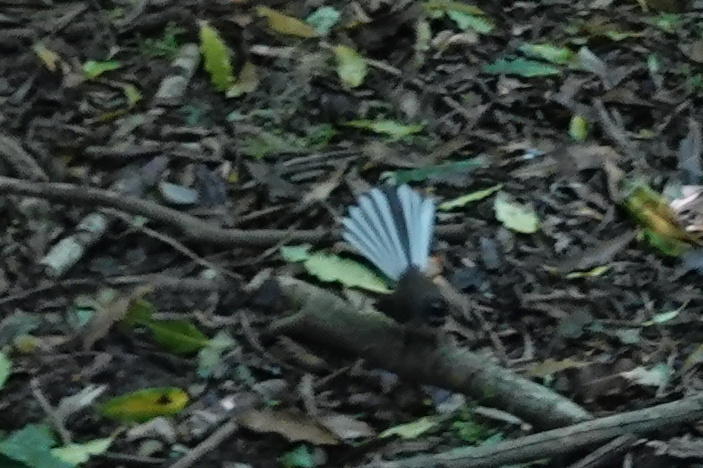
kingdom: Animalia
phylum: Chordata
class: Aves
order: Passeriformes
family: Rhipiduridae
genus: Rhipidura
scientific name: Rhipidura fuliginosa
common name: New zealand fantail
